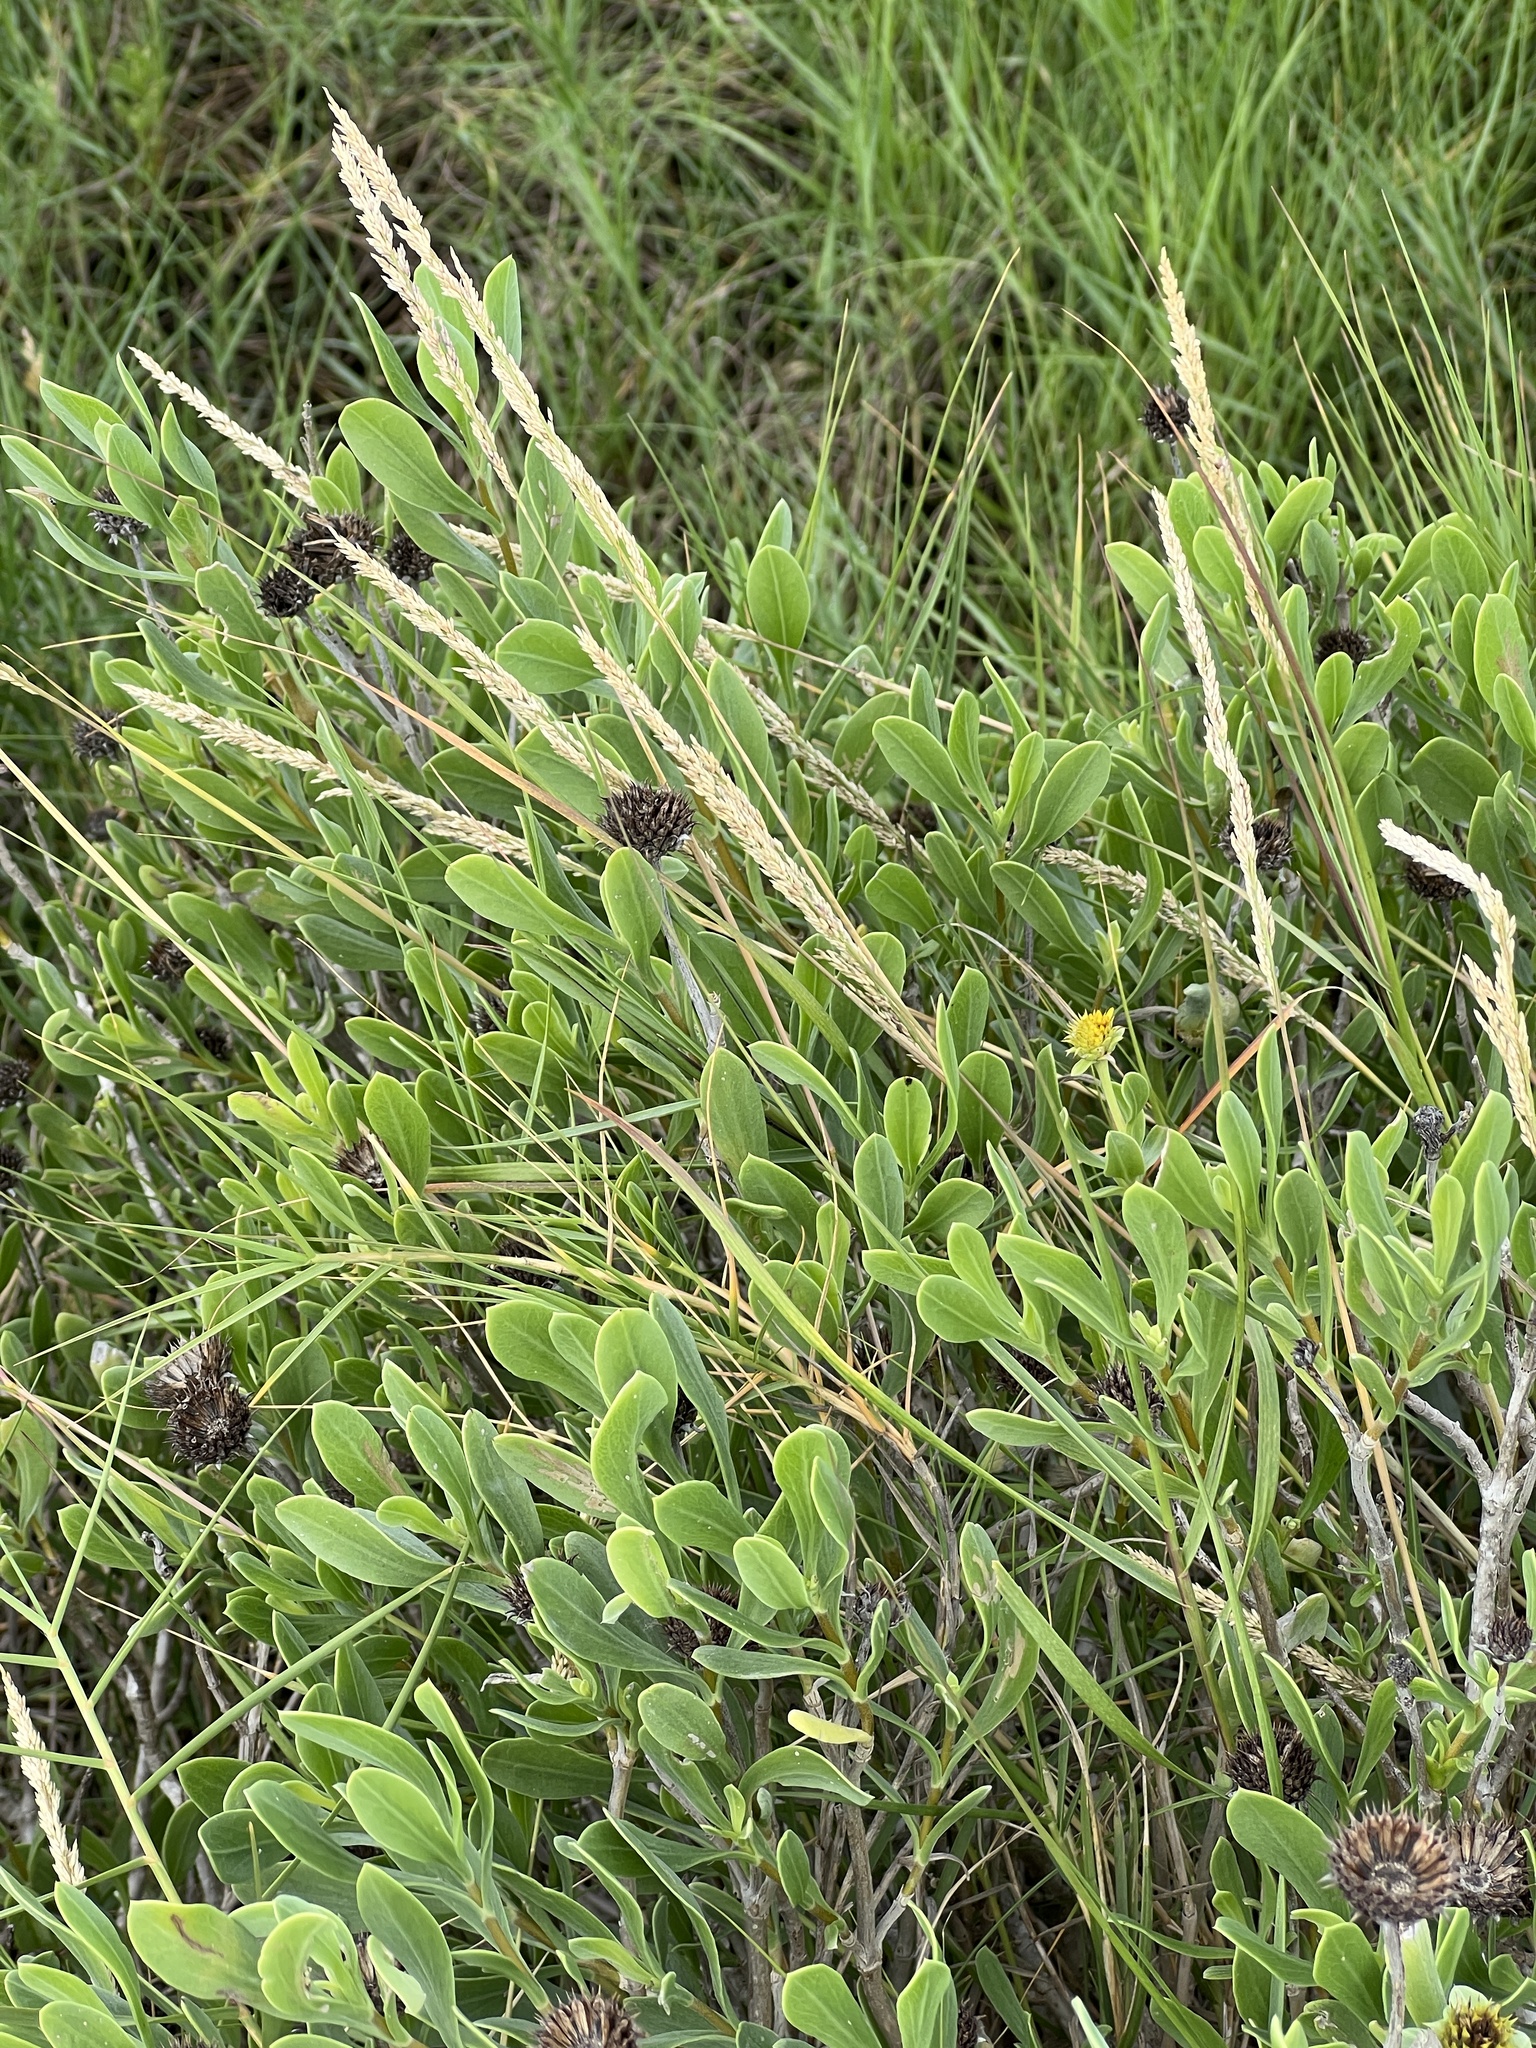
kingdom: Plantae
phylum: Tracheophyta
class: Magnoliopsida
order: Asterales
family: Asteraceae
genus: Borrichia
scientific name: Borrichia frutescens
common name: Sea oxeye
